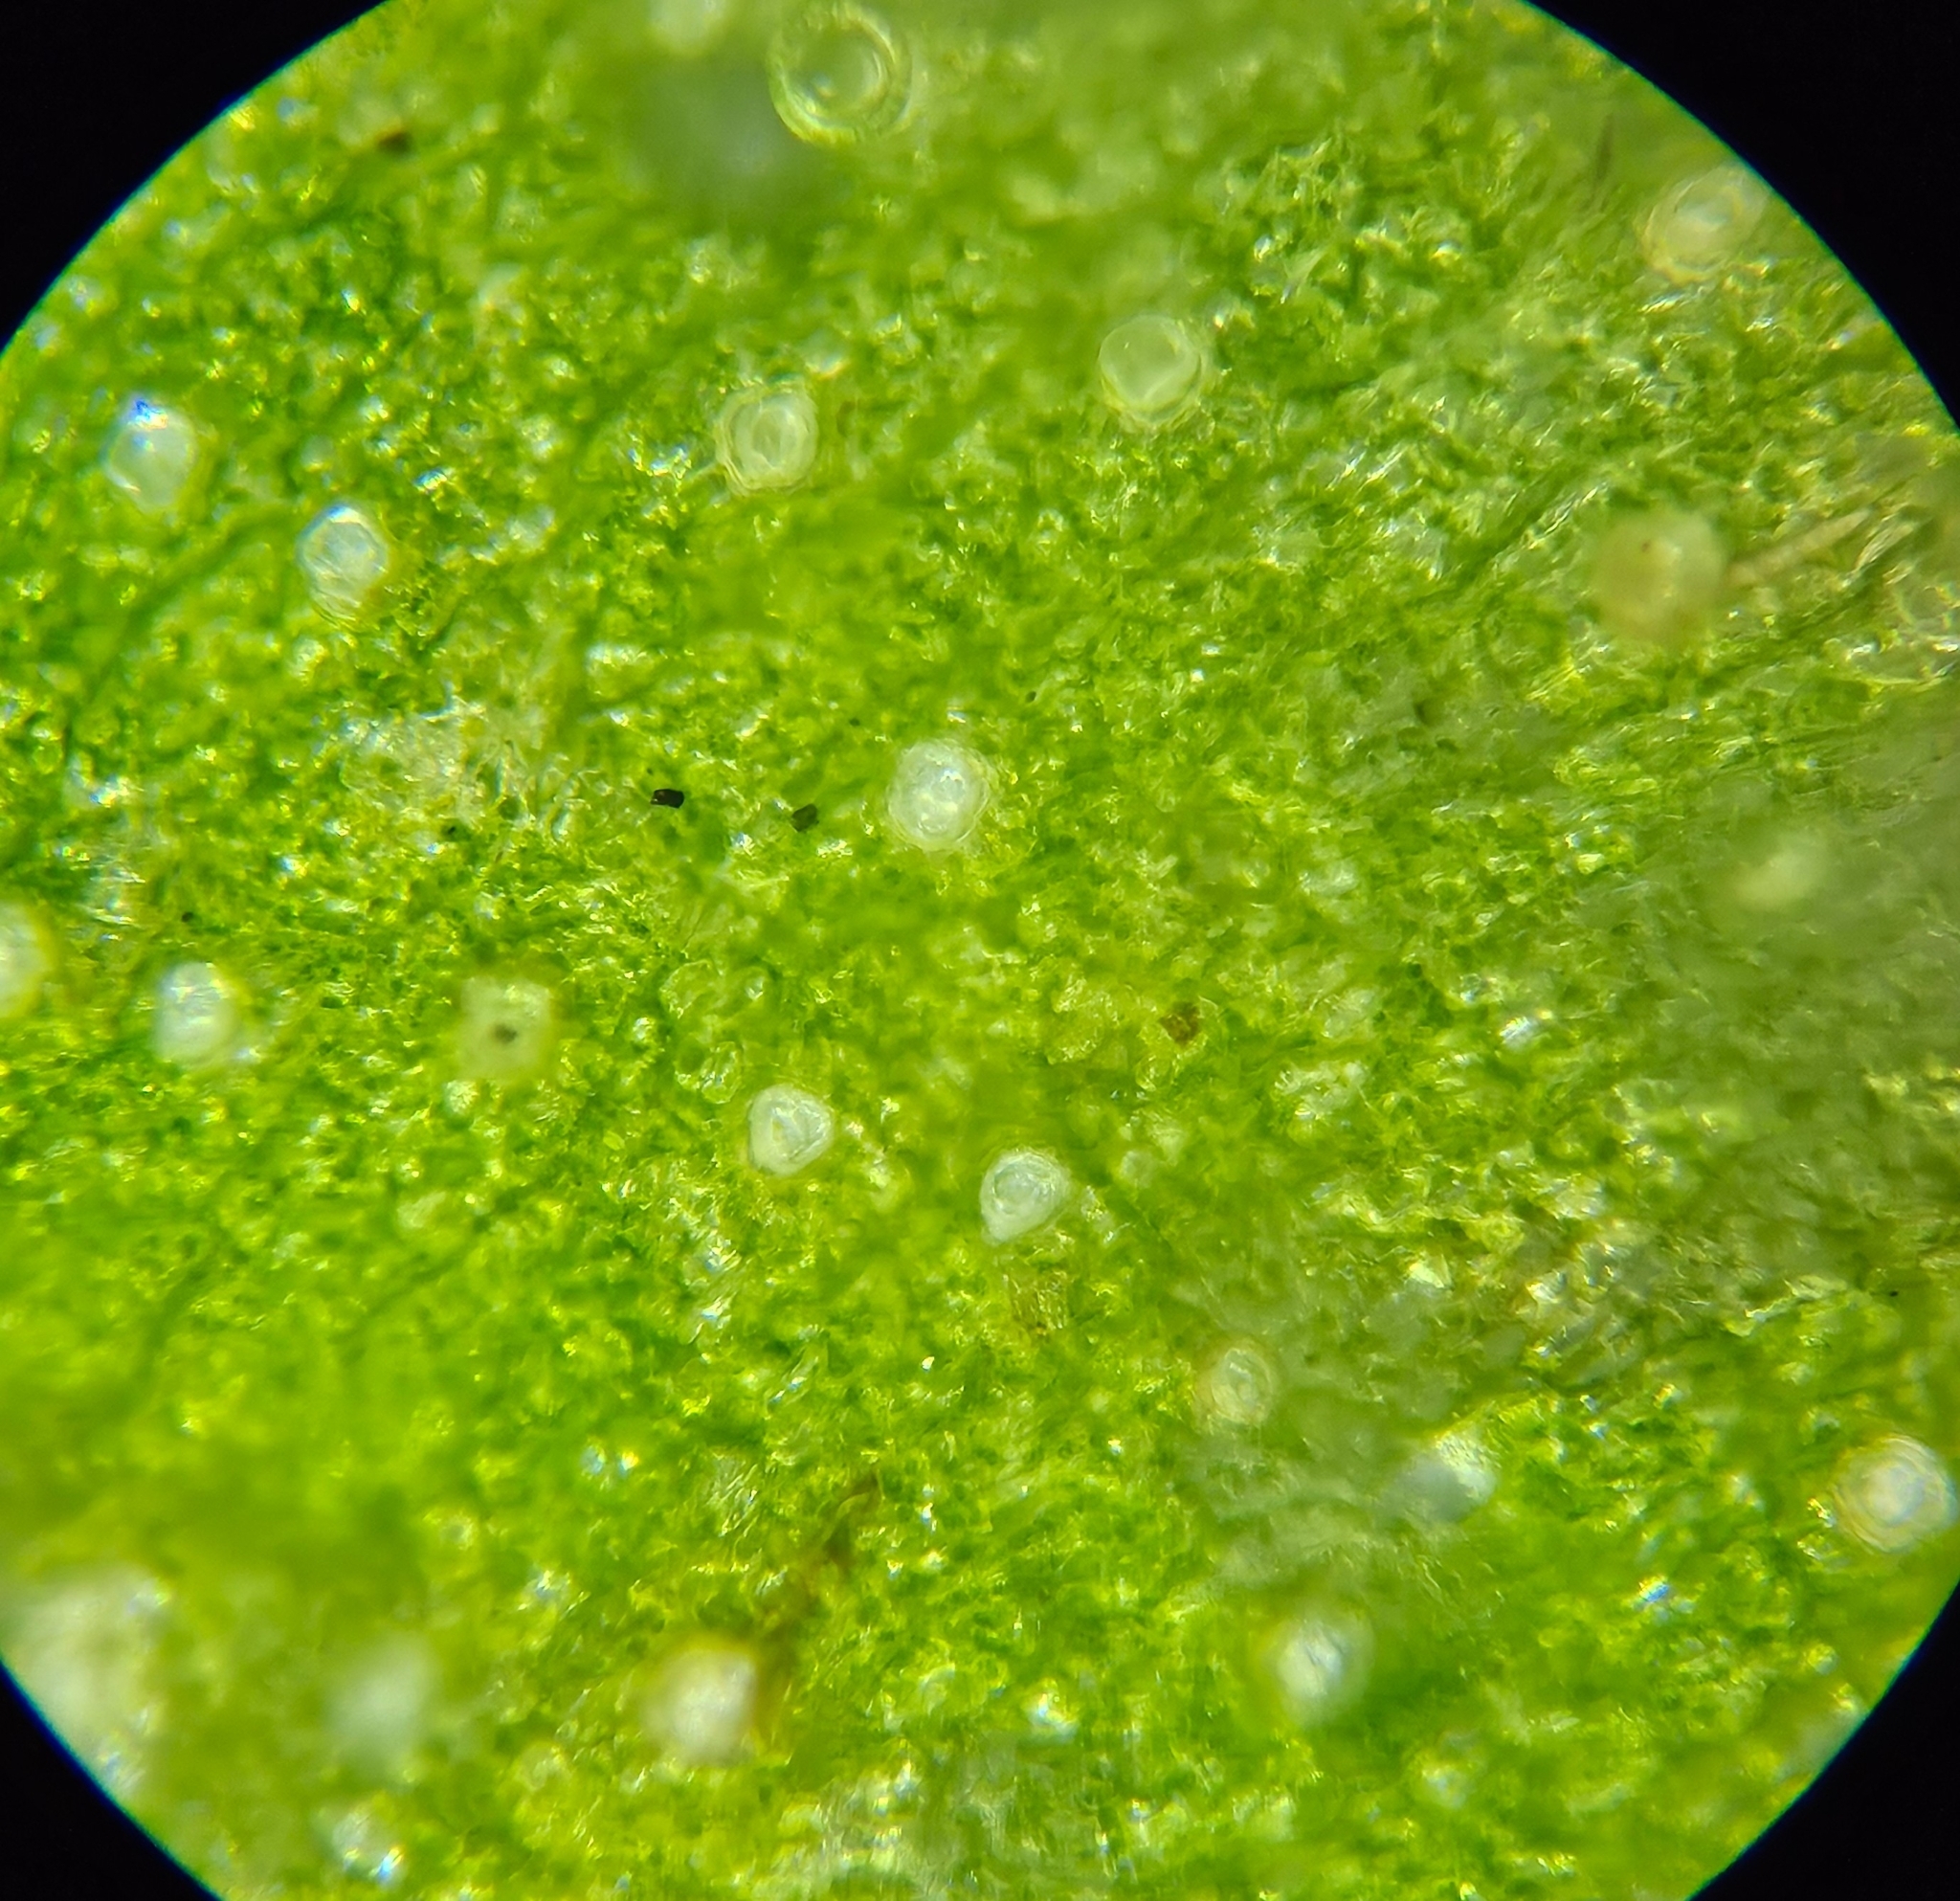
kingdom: Plantae
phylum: Marchantiophyta
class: Marchantiopsida
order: Marchantiales
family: Marchantiaceae
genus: Marchantia
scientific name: Marchantia quadrata
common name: Narrow mushroom-headed liverwort
